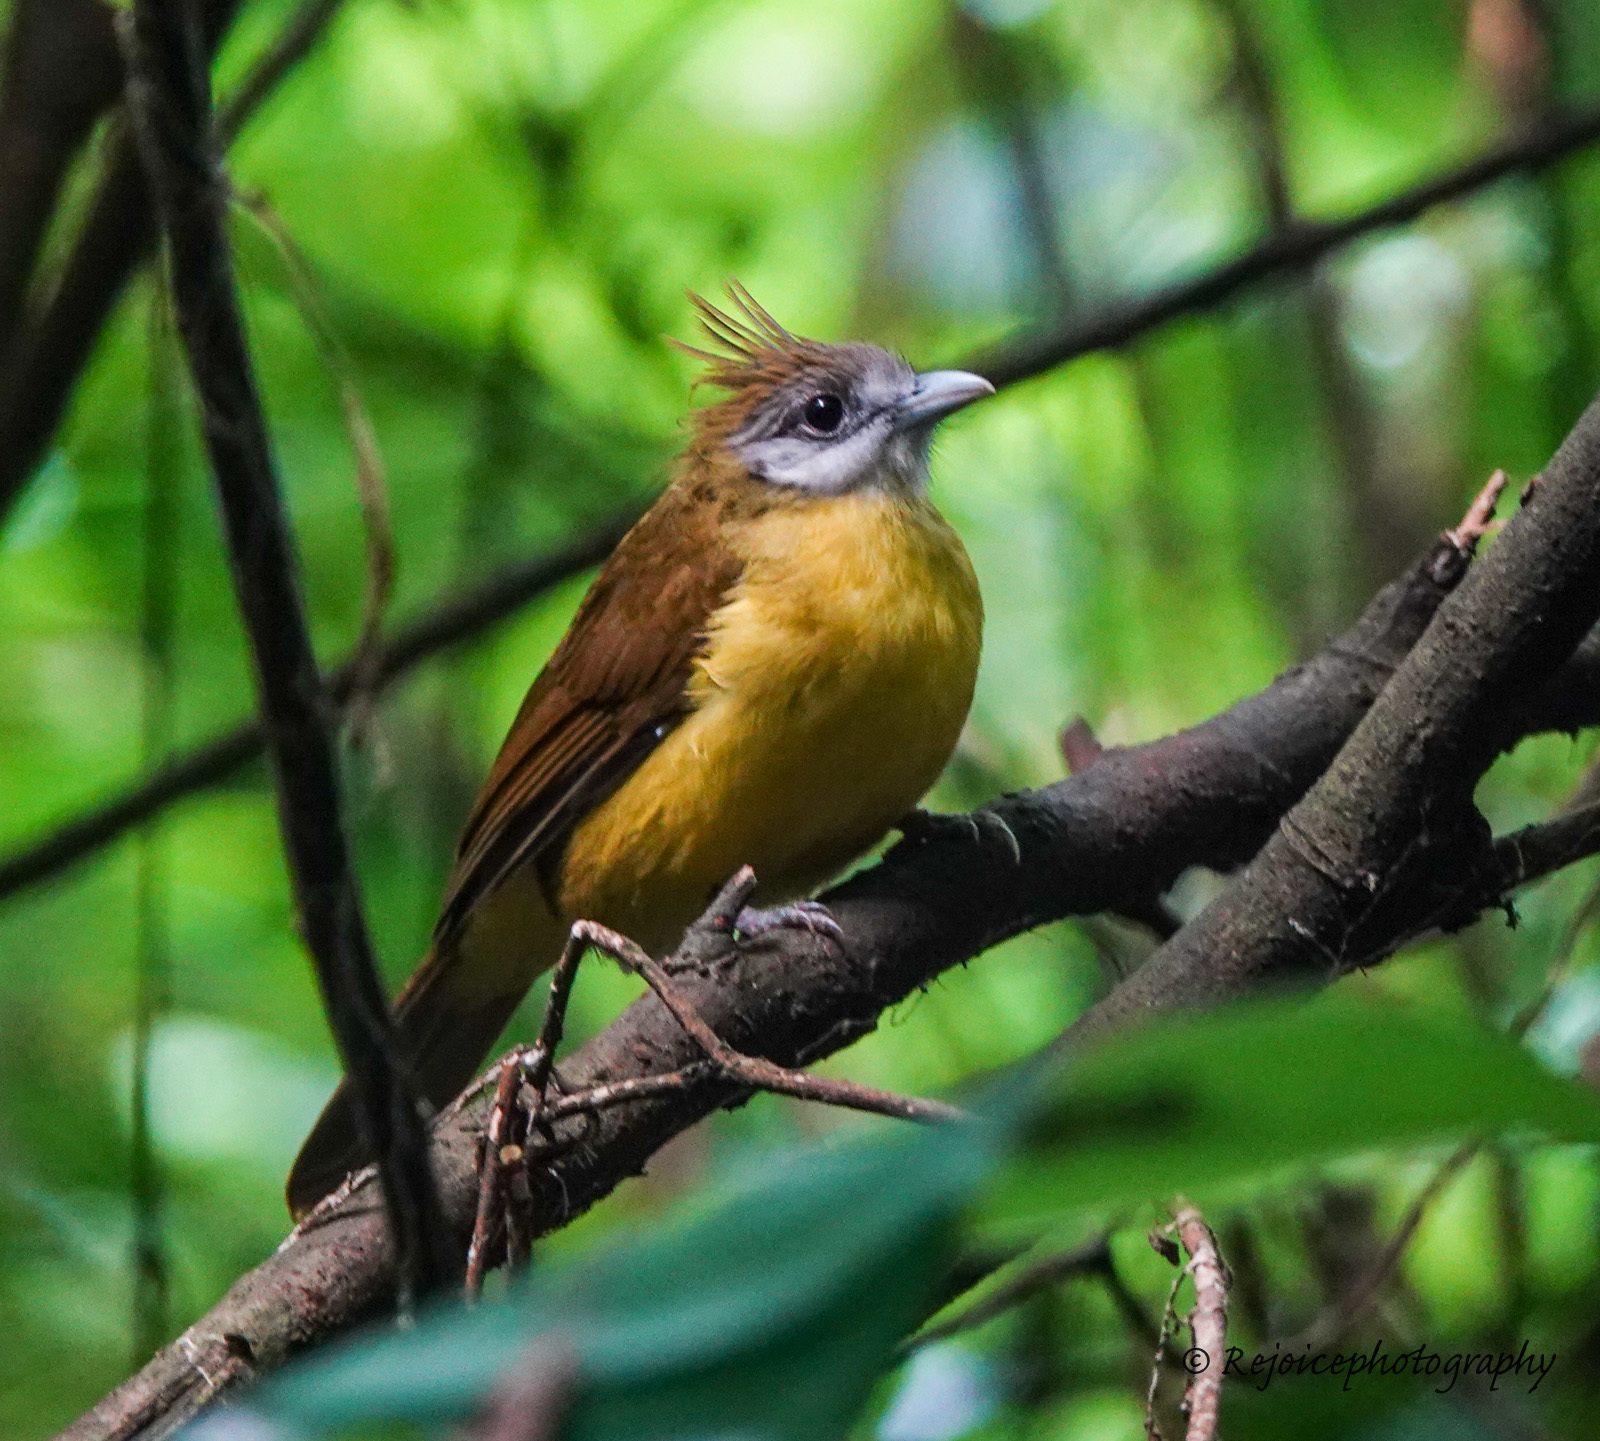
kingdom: Animalia
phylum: Chordata
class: Aves
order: Passeriformes
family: Pycnonotidae
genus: Alophoixus
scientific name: Alophoixus flaveolus
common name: White-throated bulbul
